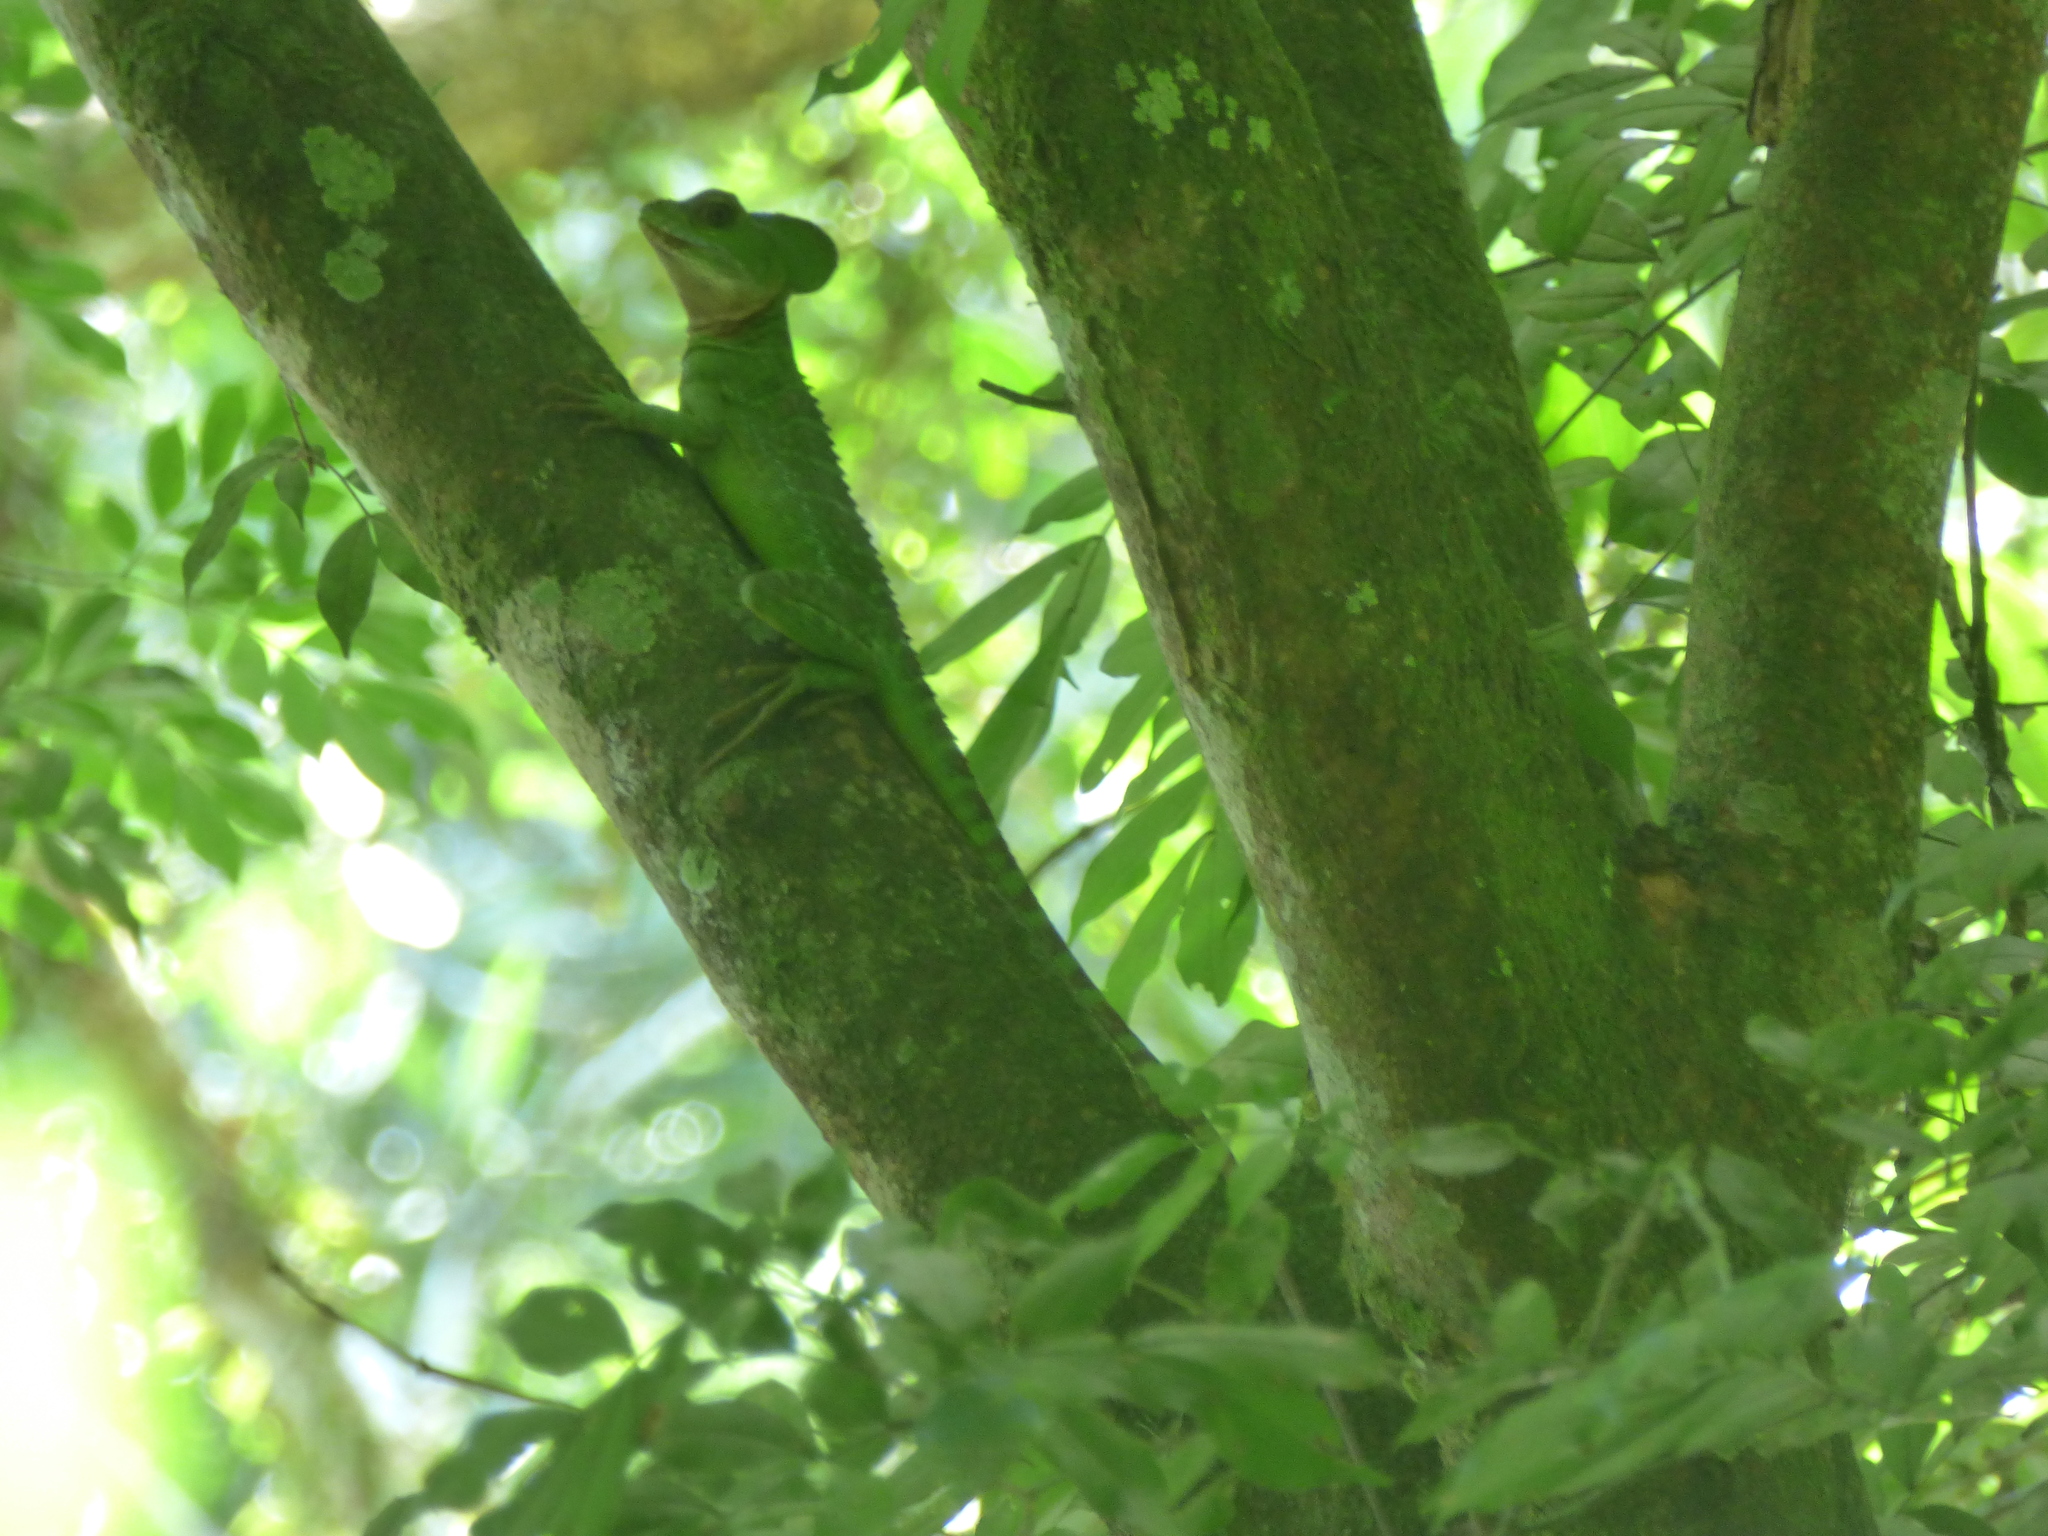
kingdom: Animalia
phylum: Chordata
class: Squamata
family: Corytophanidae
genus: Basiliscus
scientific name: Basiliscus galeritus
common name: Western basilisk
